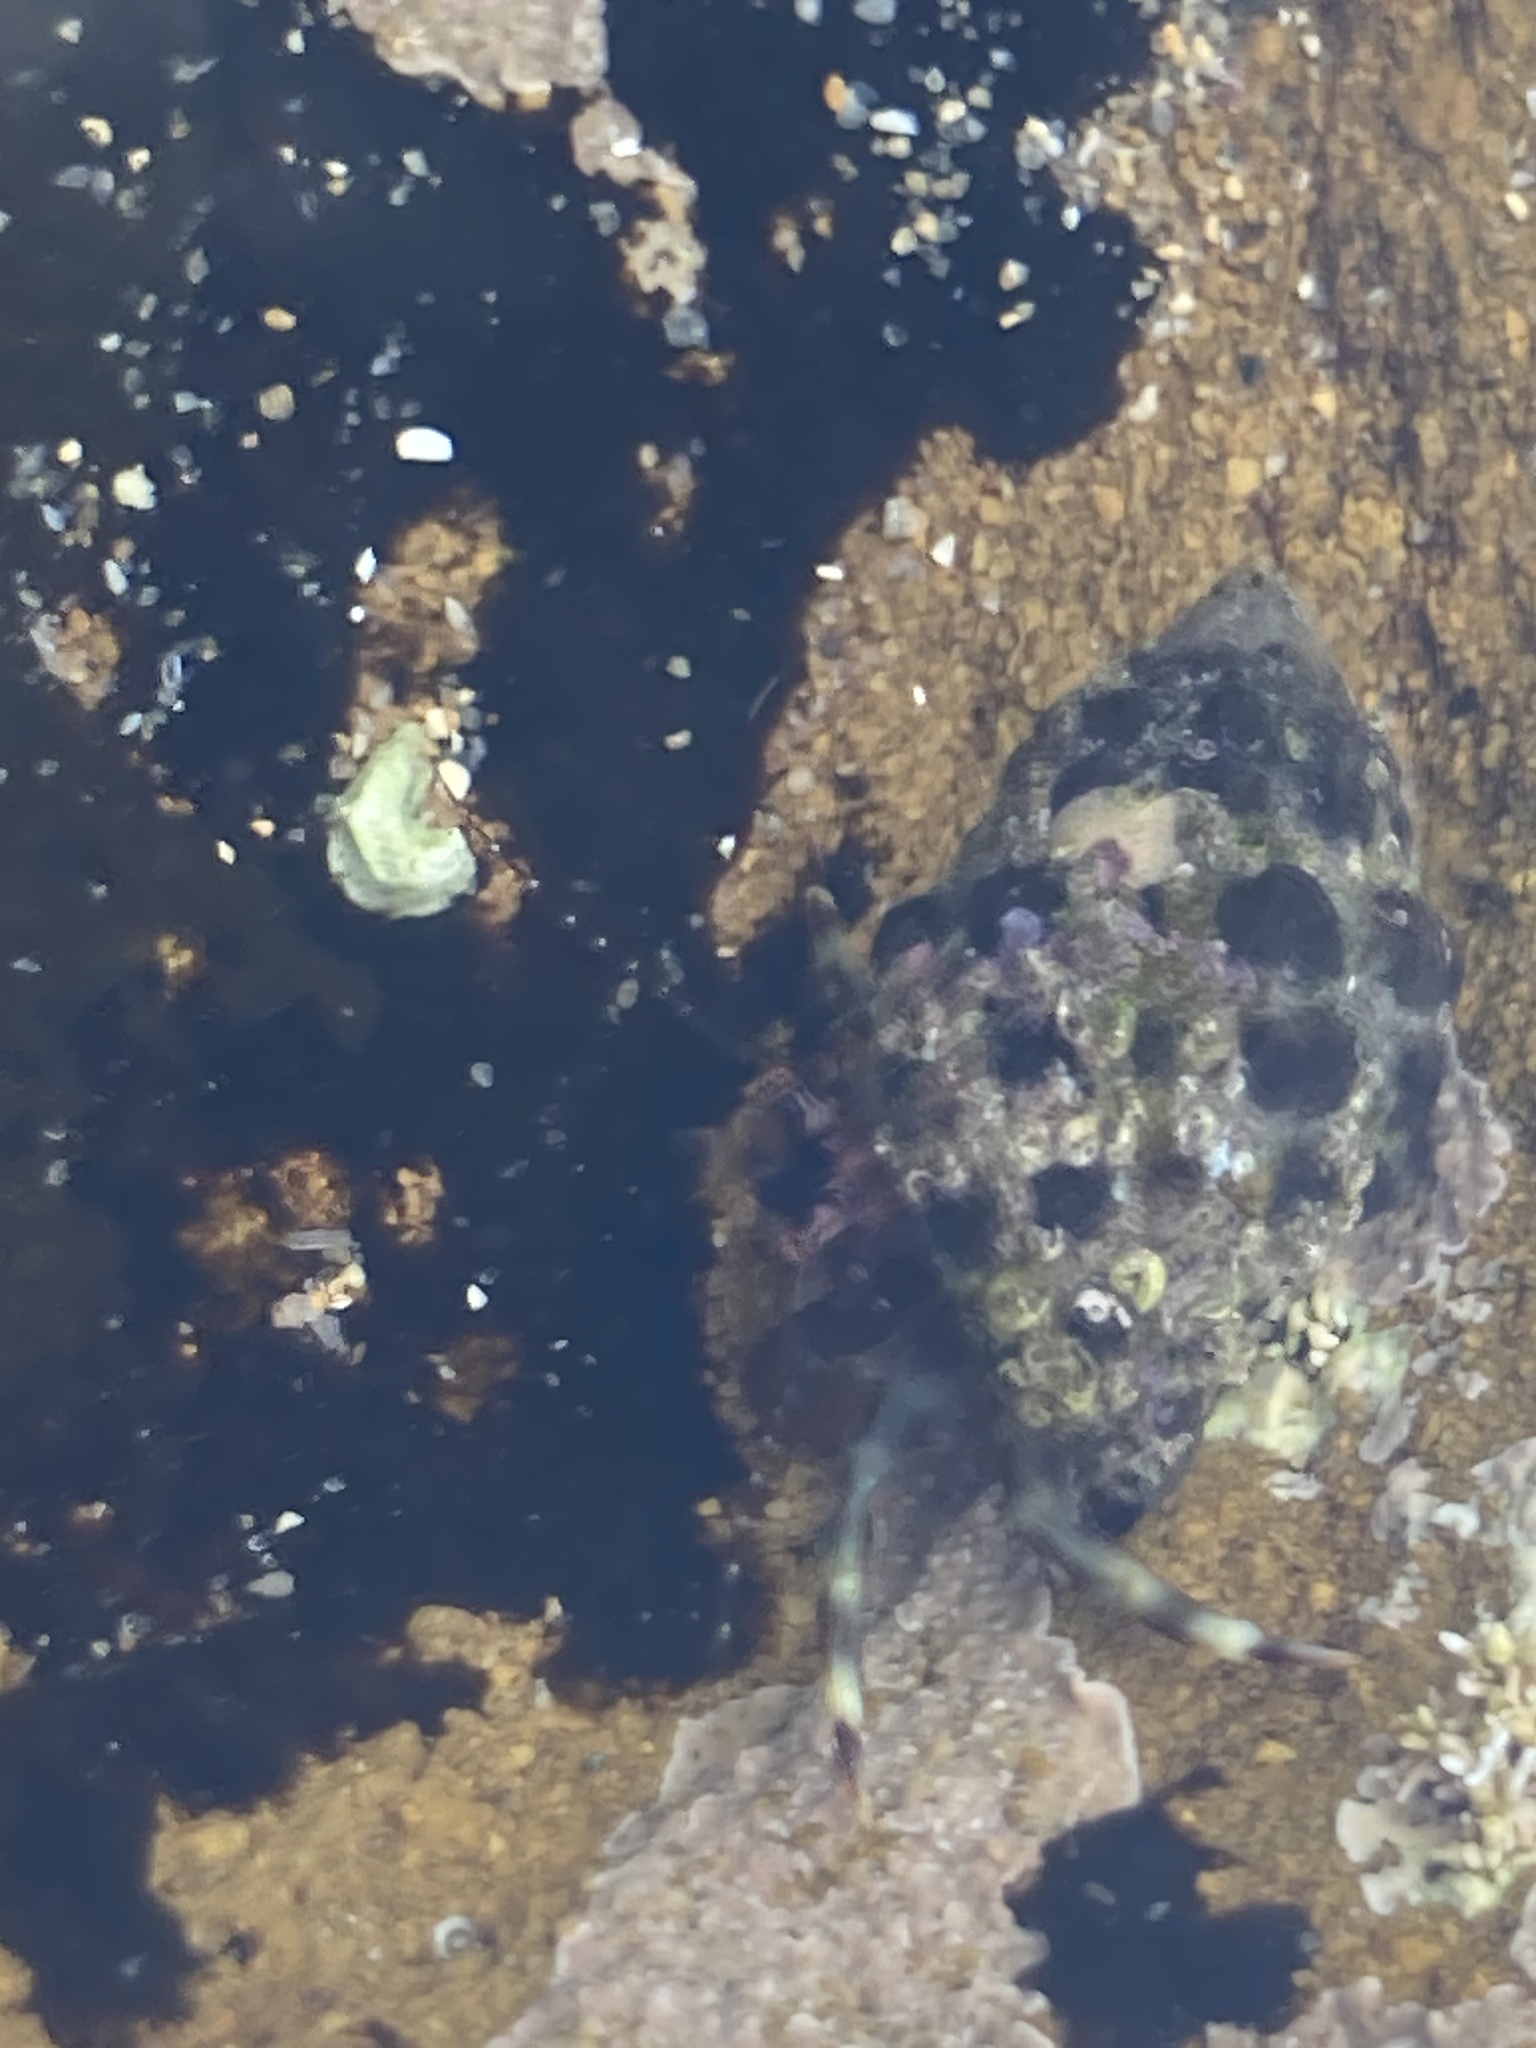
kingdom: Animalia
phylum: Arthropoda
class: Malacostraca
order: Decapoda
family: Paguridae
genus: Pagurixus
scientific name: Pagurixus jerviensis
